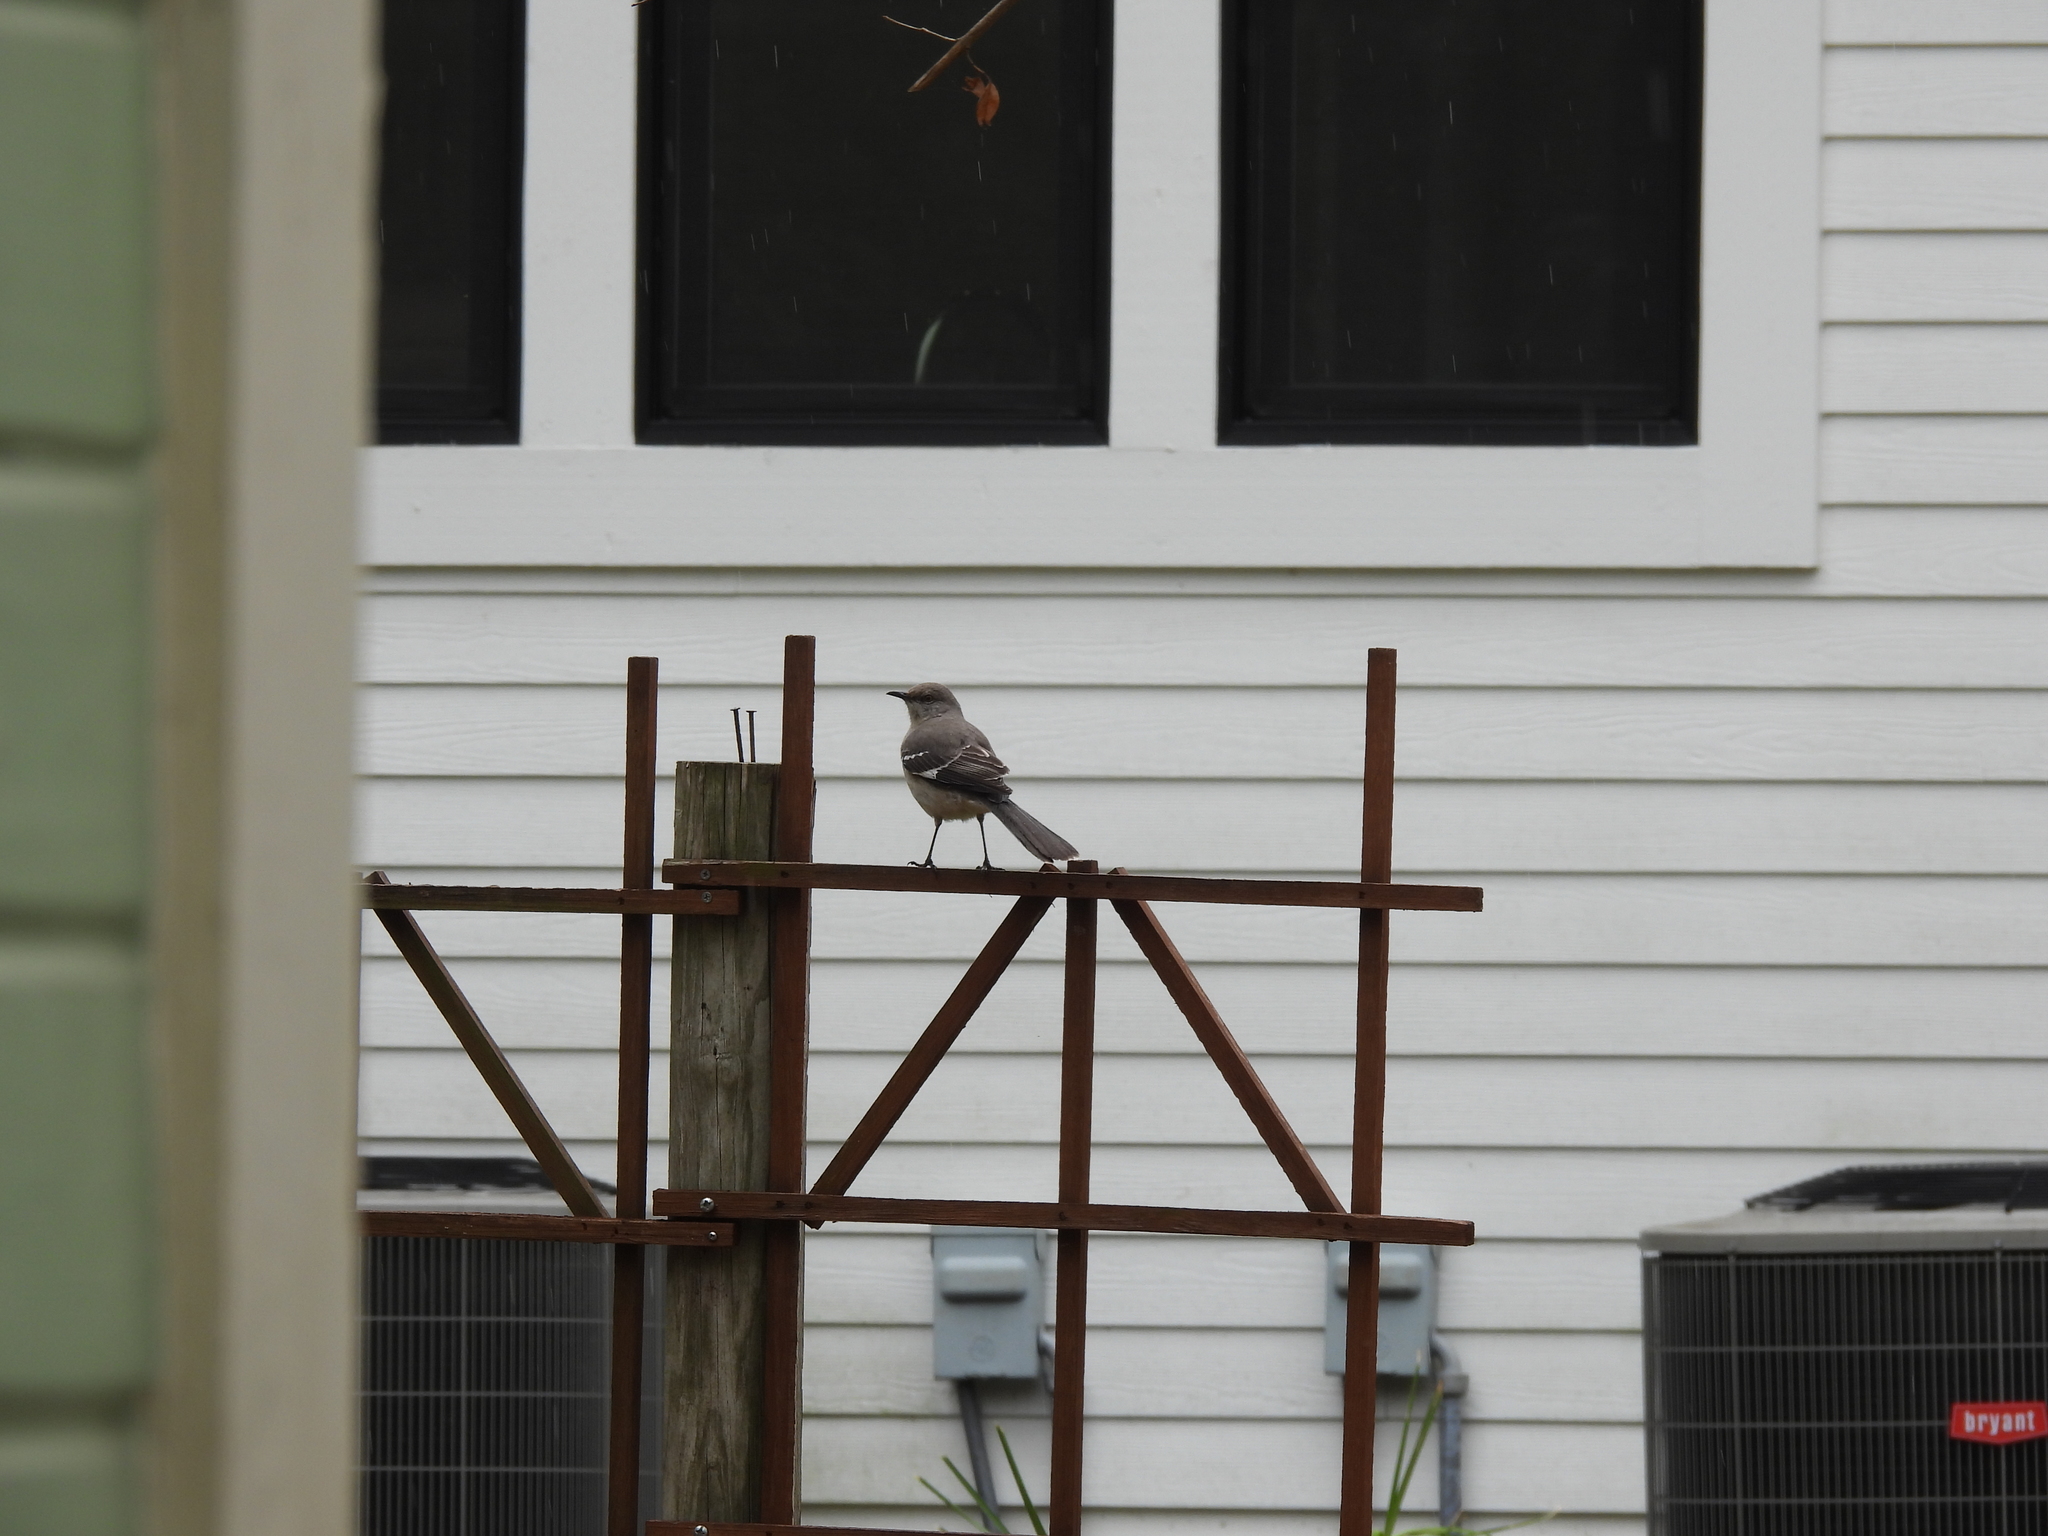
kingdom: Animalia
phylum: Chordata
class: Aves
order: Passeriformes
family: Mimidae
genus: Mimus
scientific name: Mimus polyglottos
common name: Northern mockingbird
